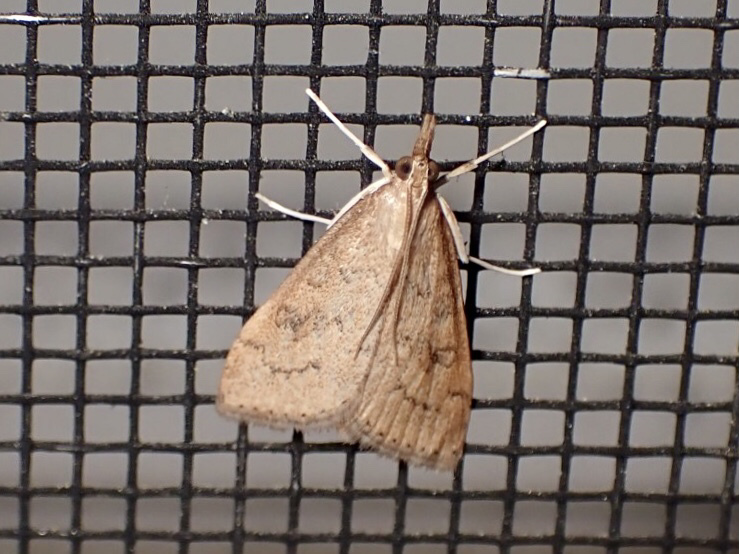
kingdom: Animalia
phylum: Arthropoda
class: Insecta
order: Lepidoptera
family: Crambidae
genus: Udea
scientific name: Udea rubigalis
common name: Celery leaftier moth
